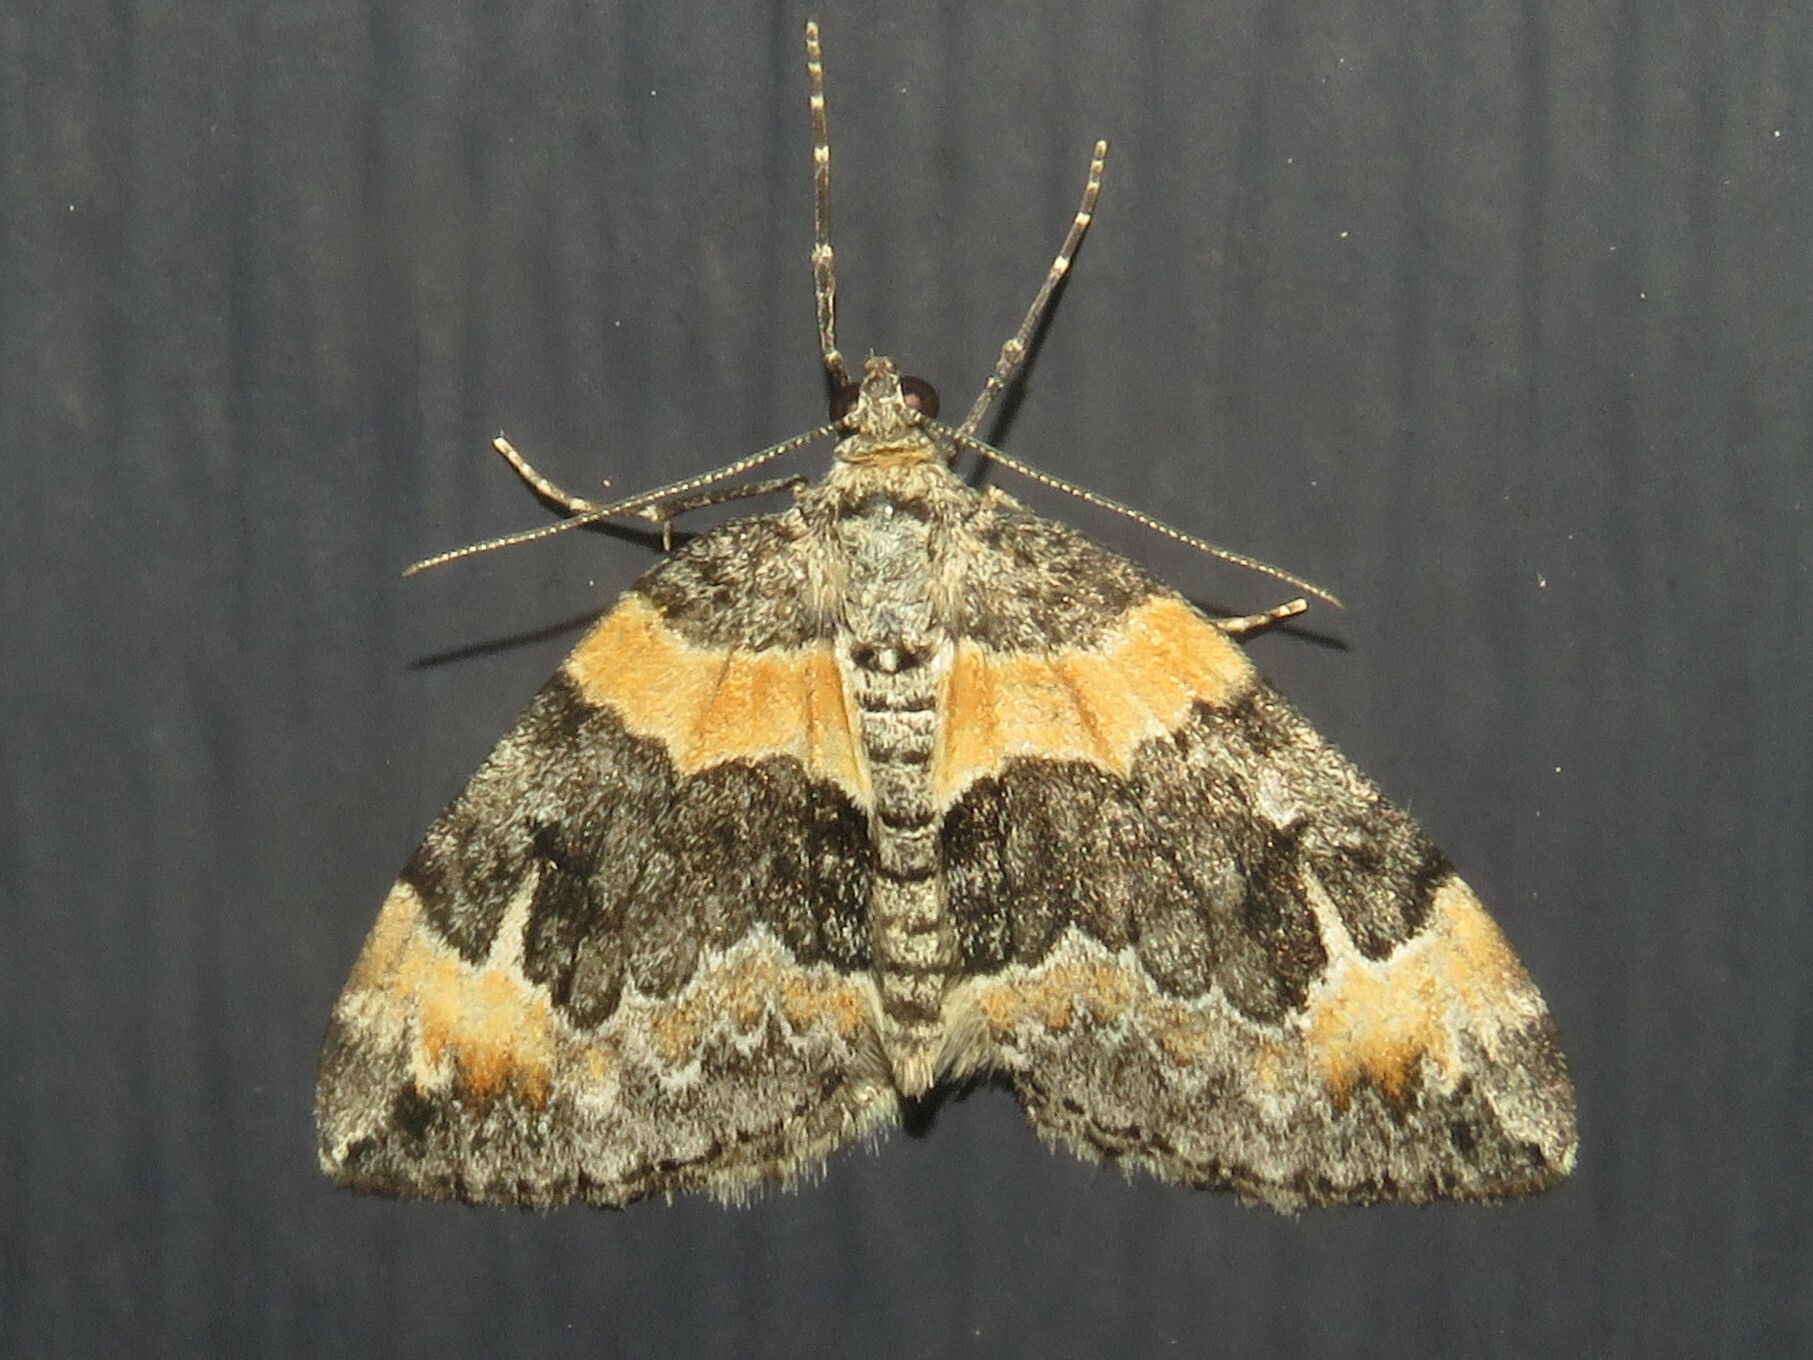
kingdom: Animalia
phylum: Arthropoda
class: Insecta
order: Lepidoptera
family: Geometridae
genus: Dysstroma
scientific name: Dysstroma hersiliata
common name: Orange-barred carpet
